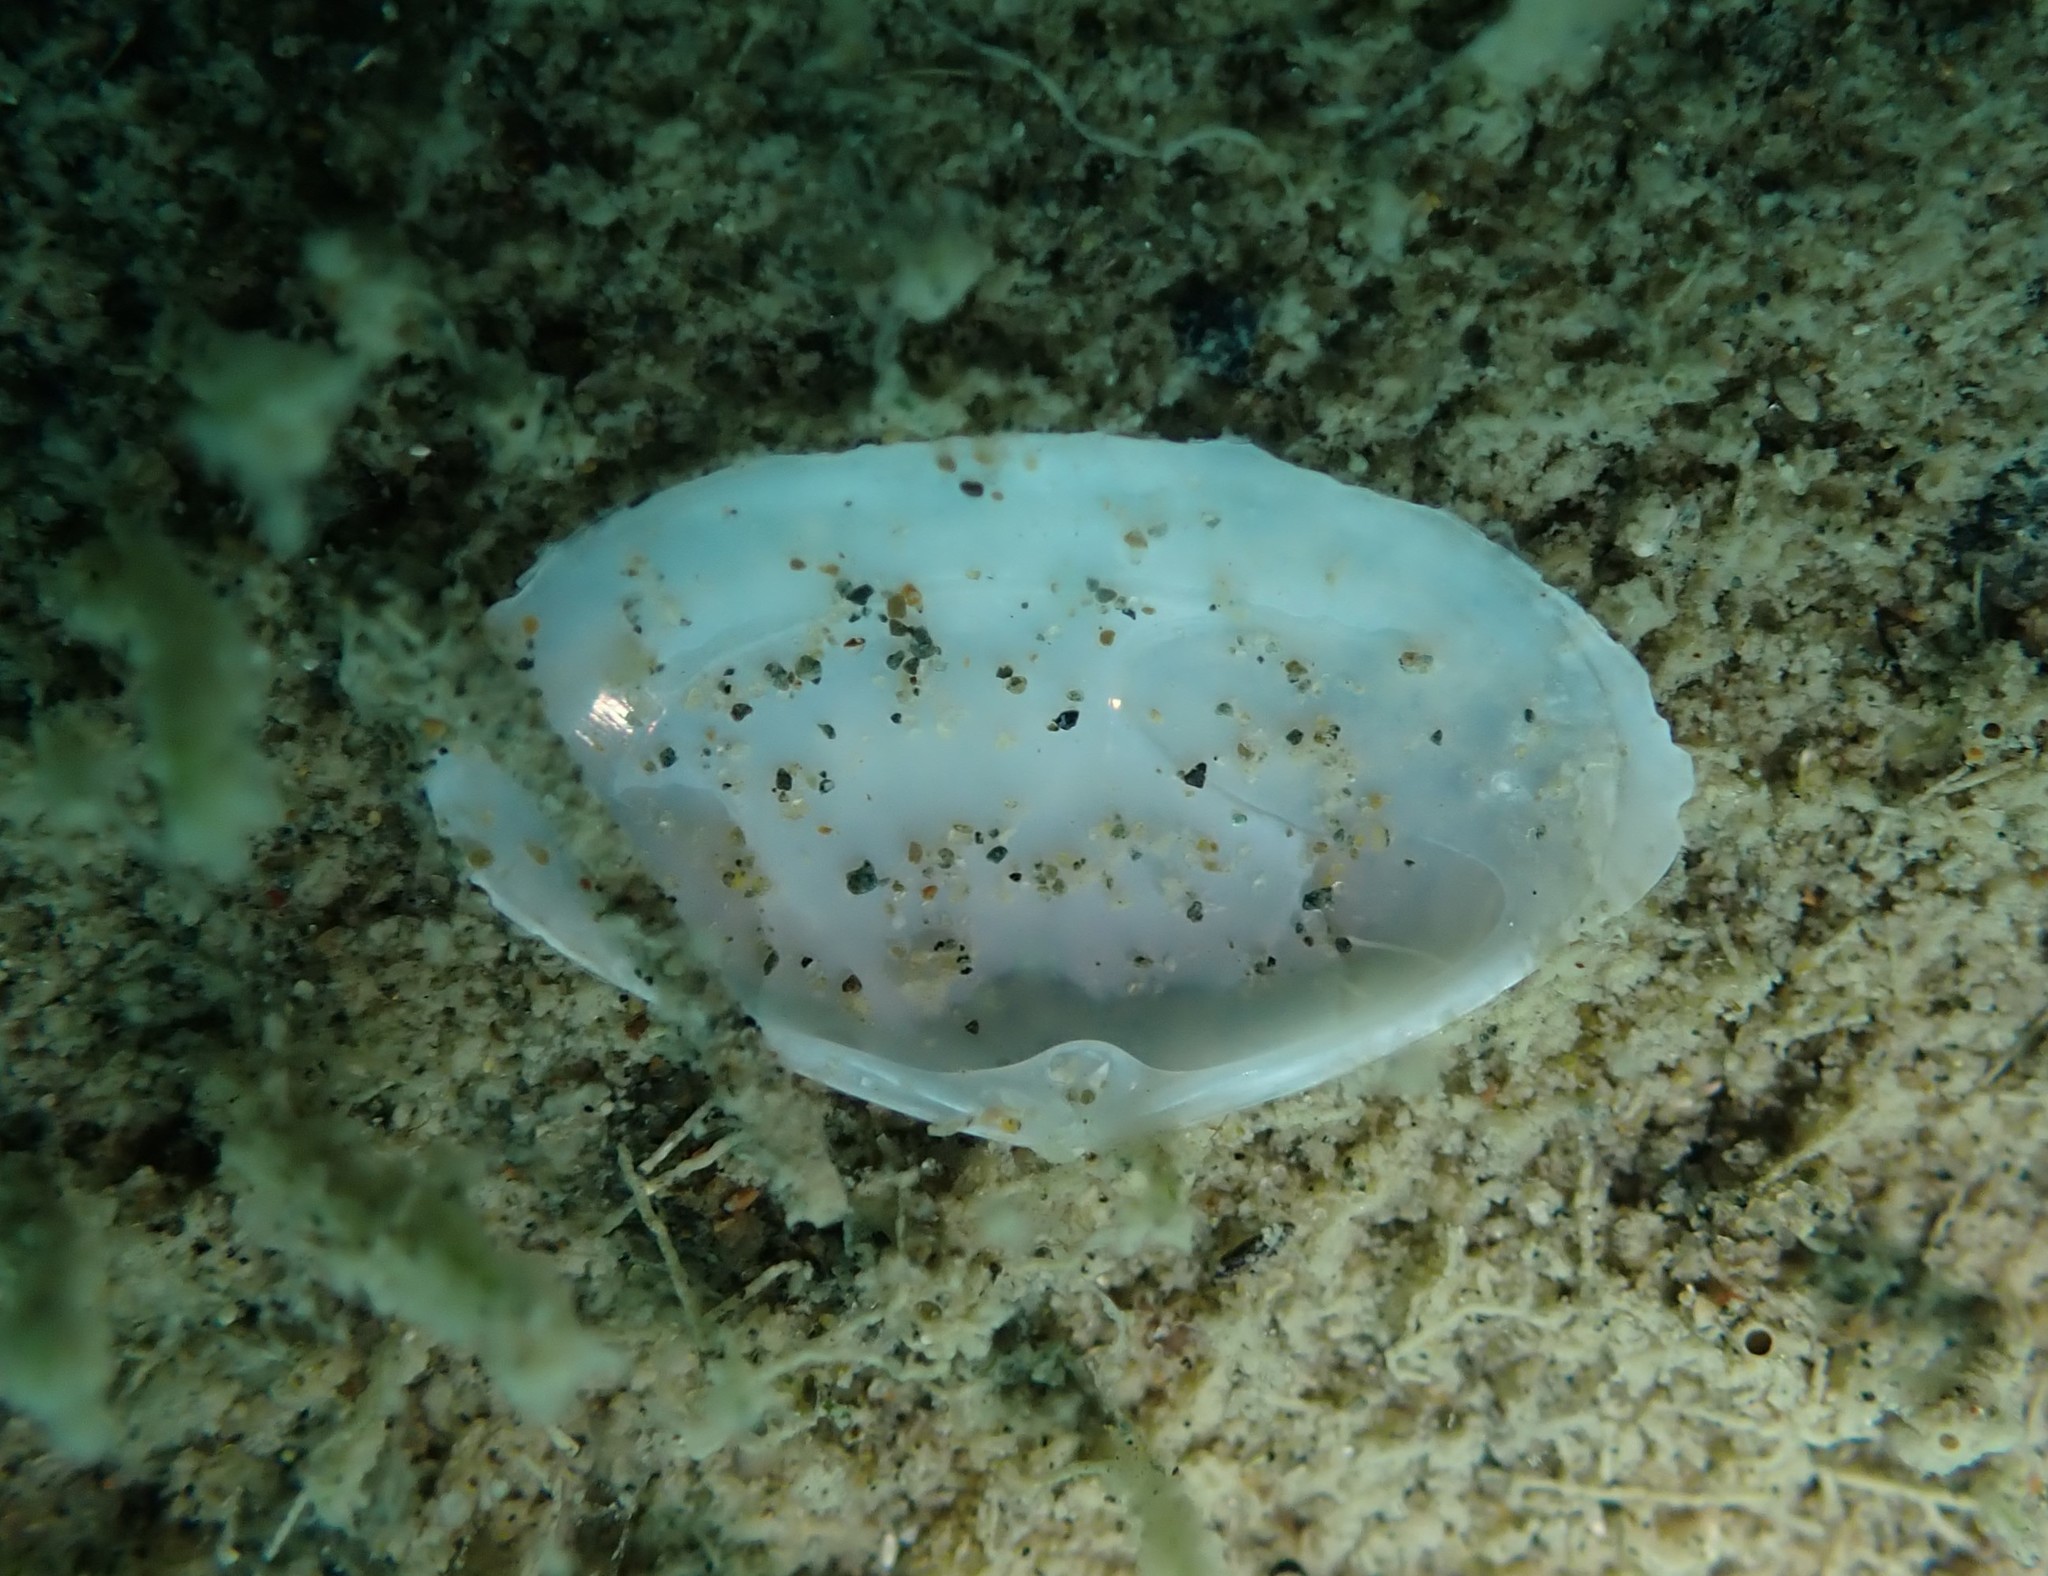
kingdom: Animalia
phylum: Mollusca
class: Bivalvia
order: Venerida
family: Mactridae
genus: Scalpomactra
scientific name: Scalpomactra scalpellum
